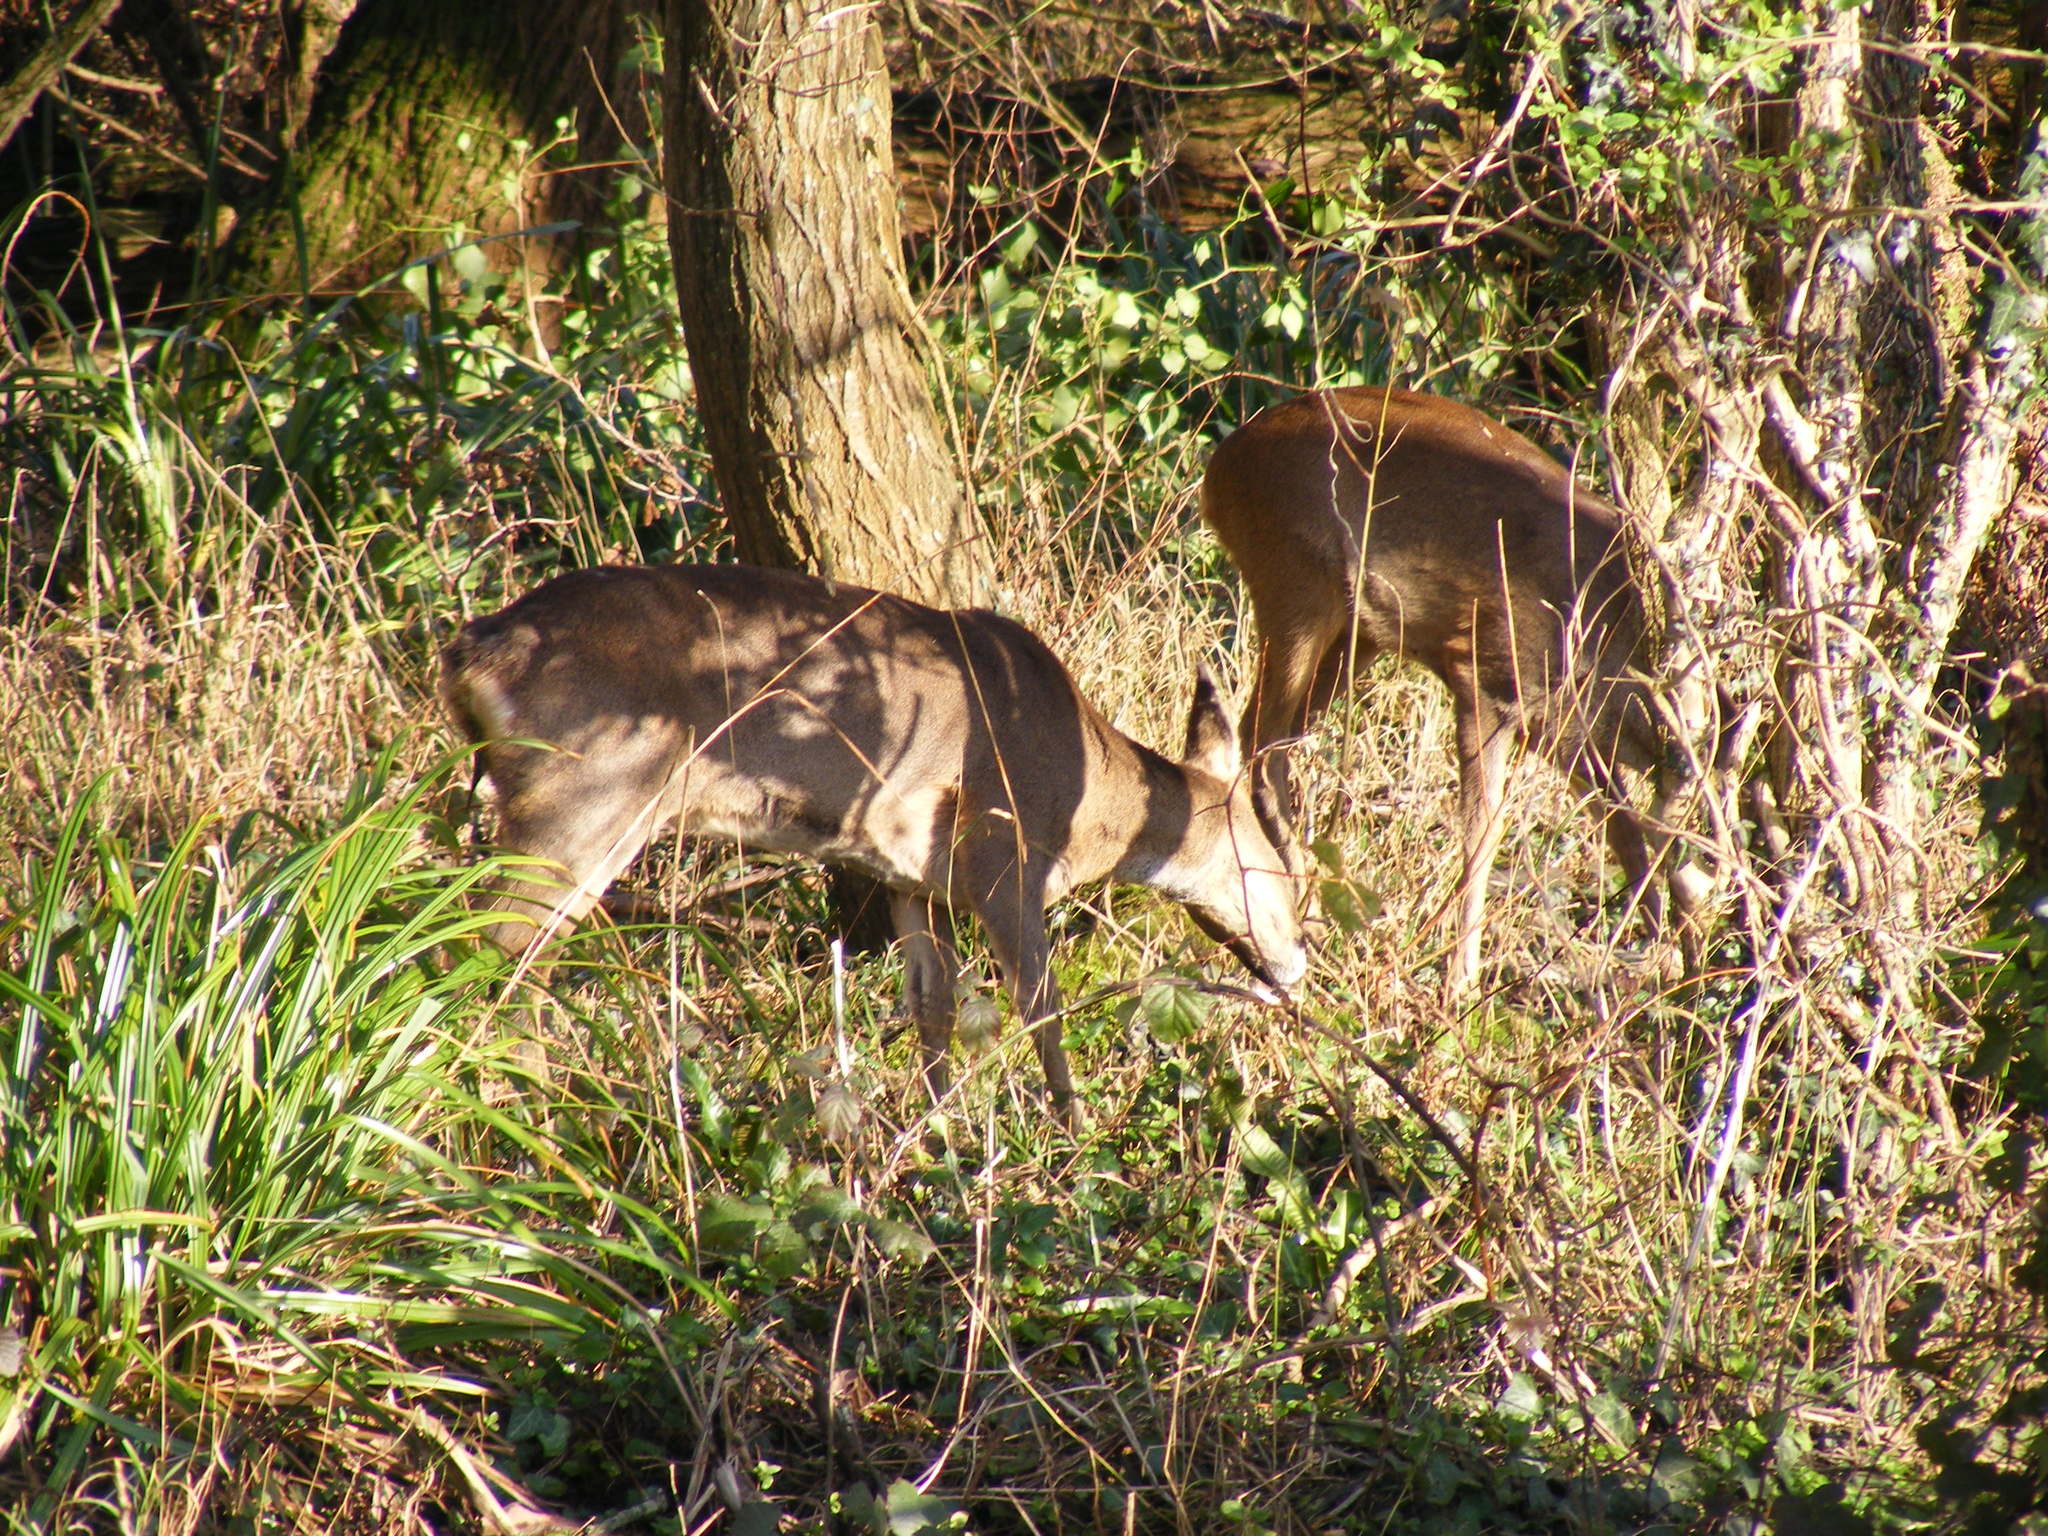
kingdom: Animalia
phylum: Chordata
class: Mammalia
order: Artiodactyla
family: Cervidae
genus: Capreolus
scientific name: Capreolus capreolus
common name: Western roe deer
